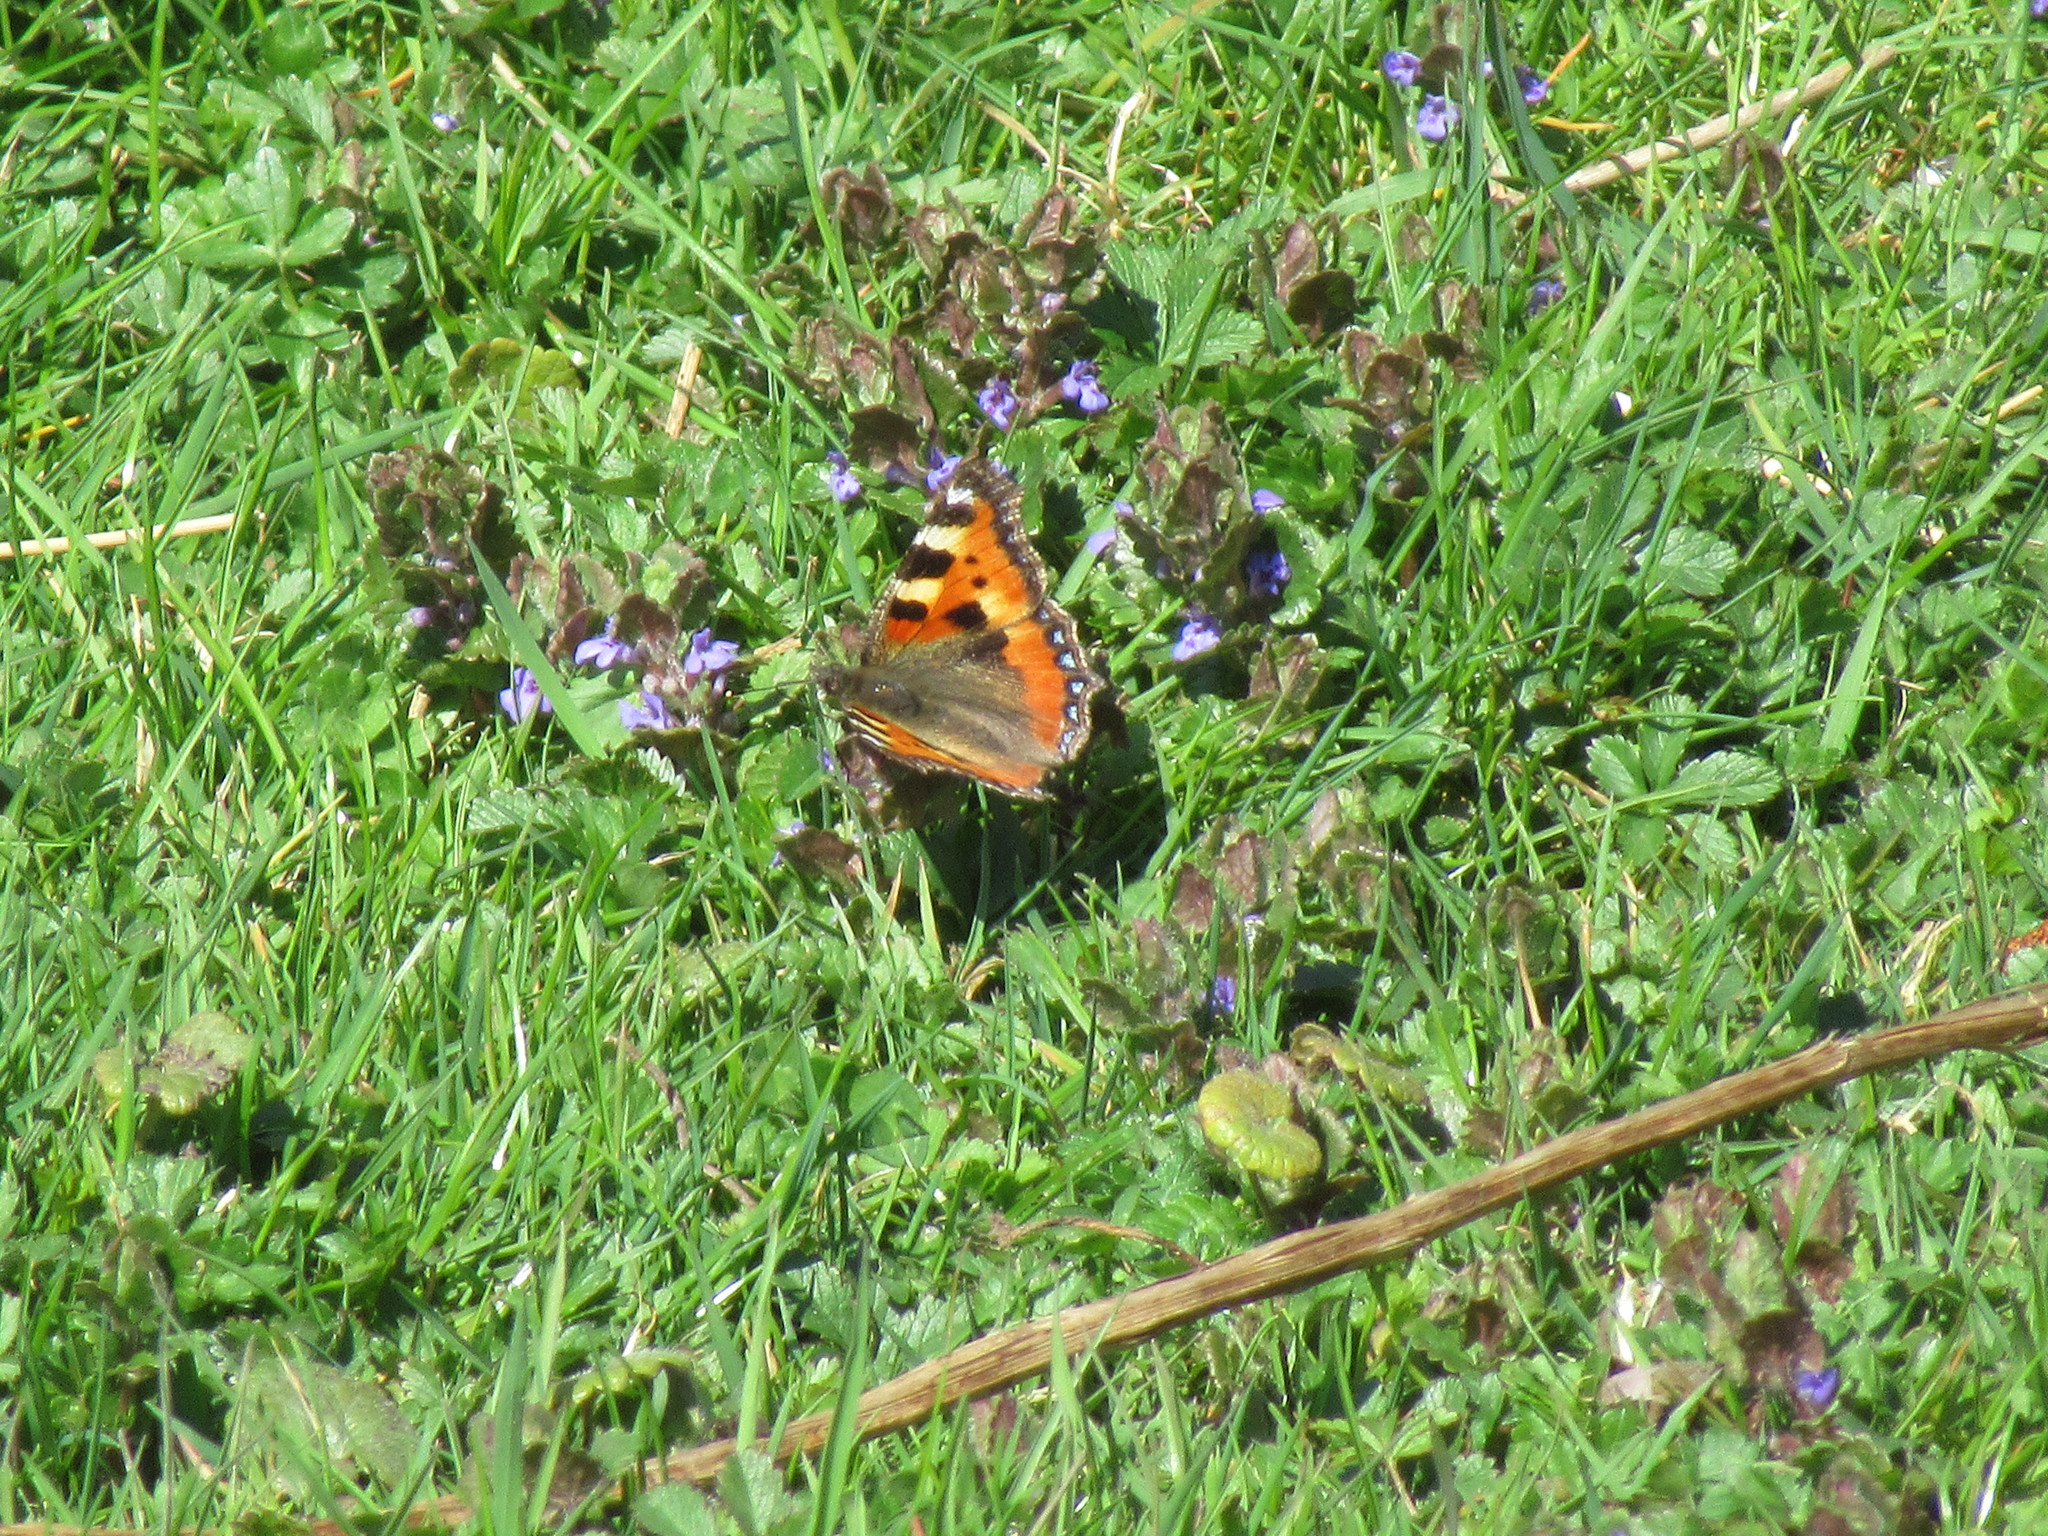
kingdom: Animalia
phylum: Arthropoda
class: Insecta
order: Lepidoptera
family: Nymphalidae
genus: Aglais
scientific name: Aglais urticae
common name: Small tortoiseshell
